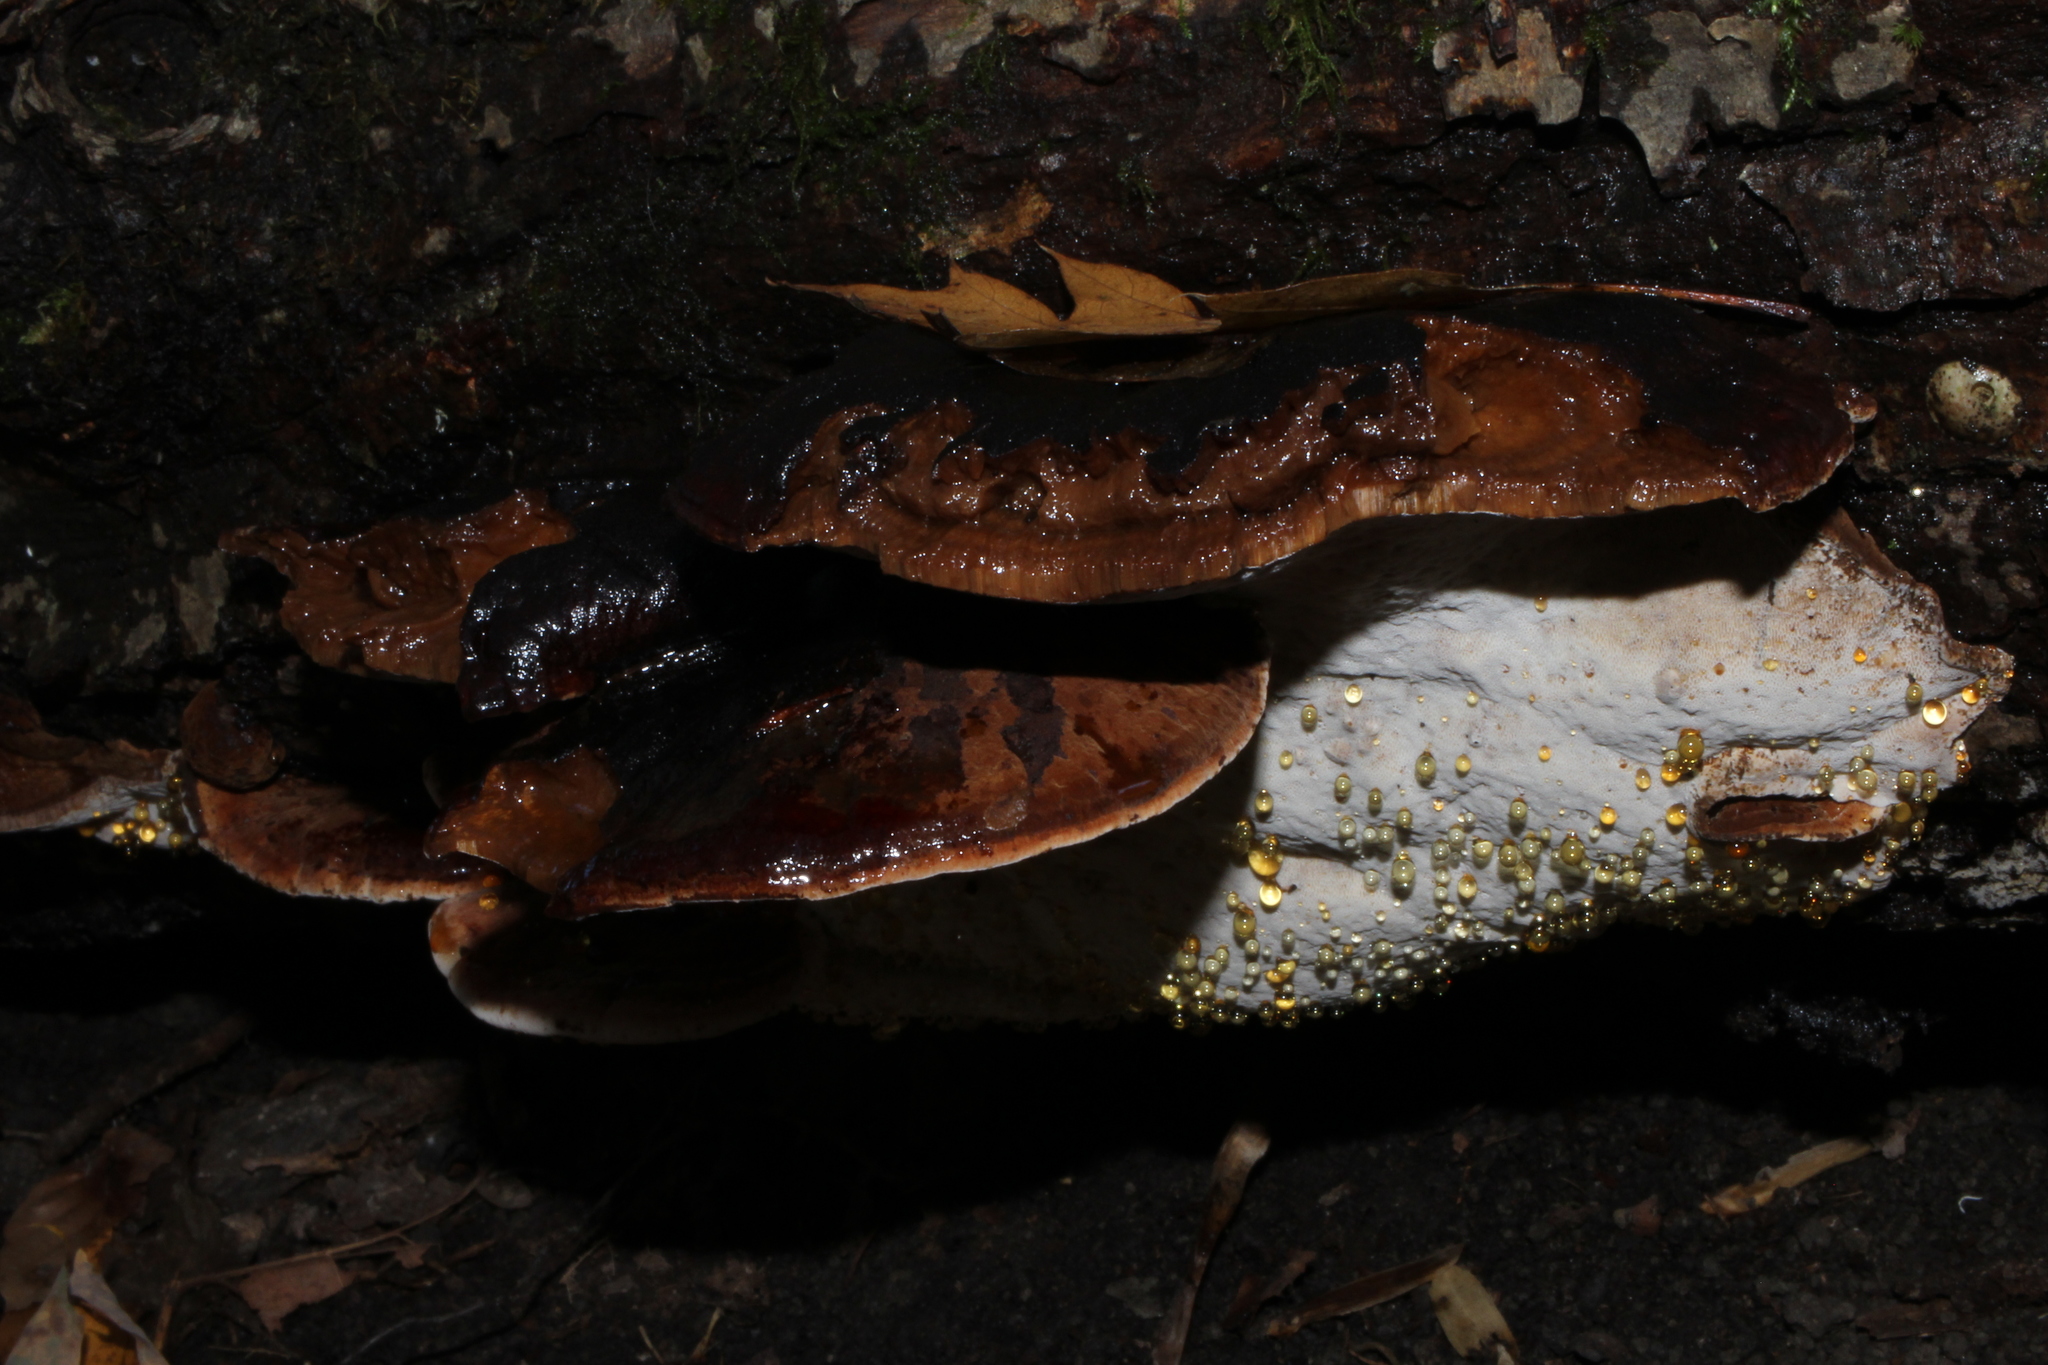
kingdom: Fungi
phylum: Basidiomycota
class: Agaricomycetes
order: Polyporales
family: Ischnodermataceae
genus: Ischnoderma
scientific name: Ischnoderma resinosum
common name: Resinous polypore
